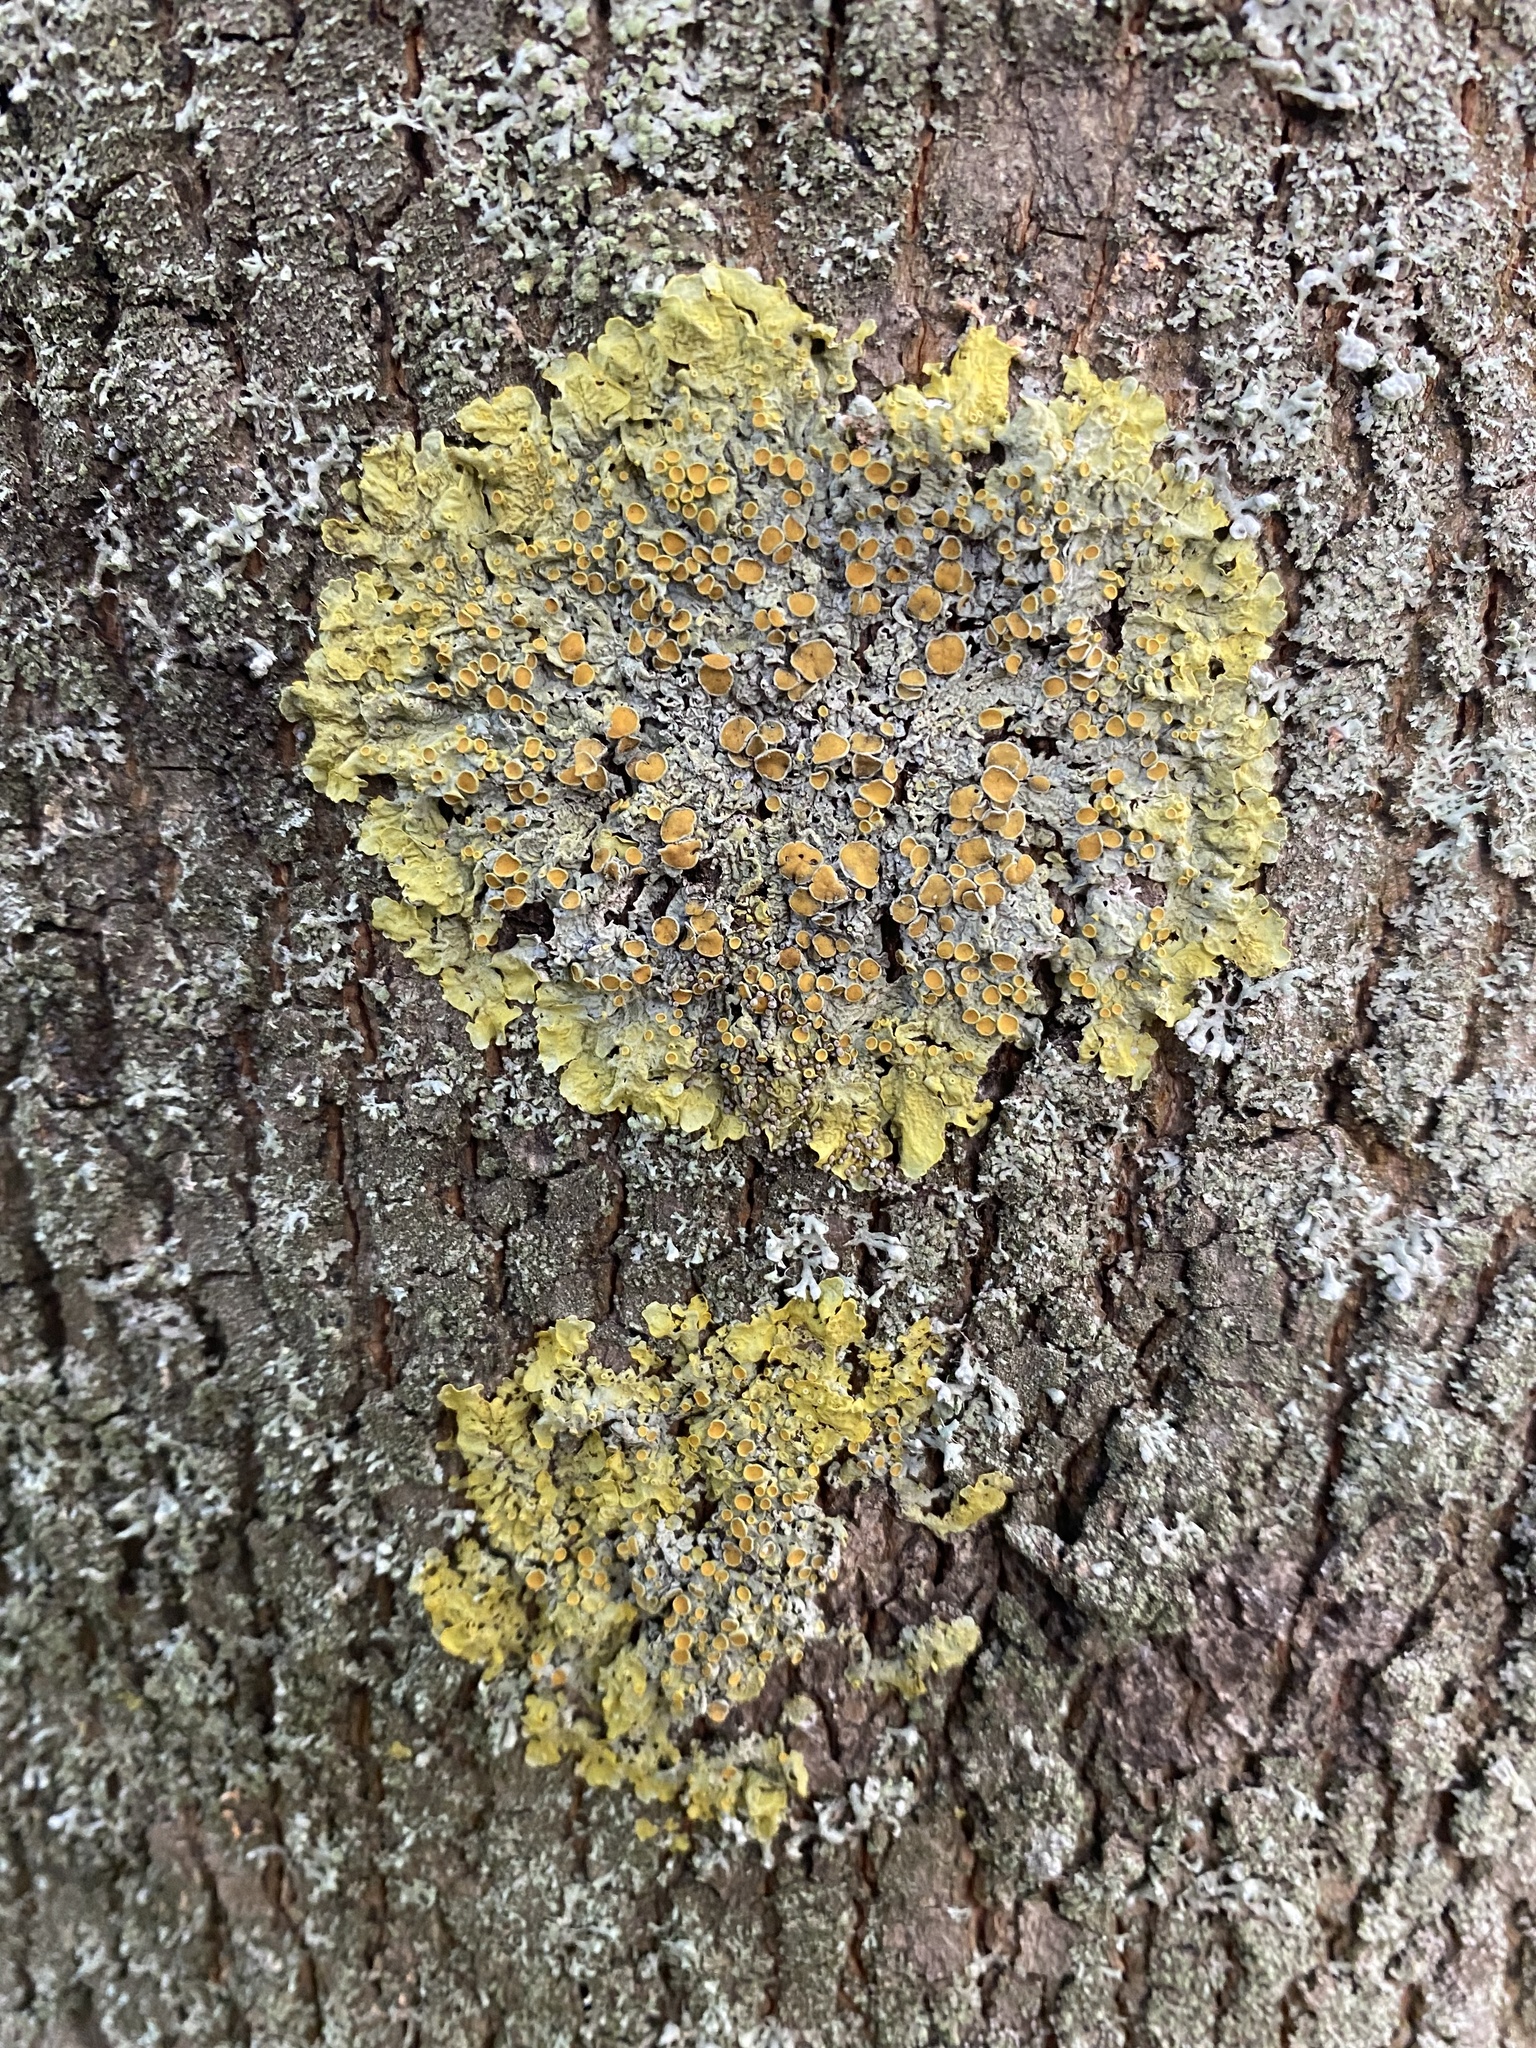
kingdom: Fungi
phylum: Ascomycota
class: Lecanoromycetes
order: Teloschistales
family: Teloschistaceae
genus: Xanthoria
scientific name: Xanthoria parietina
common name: Common orange lichen
